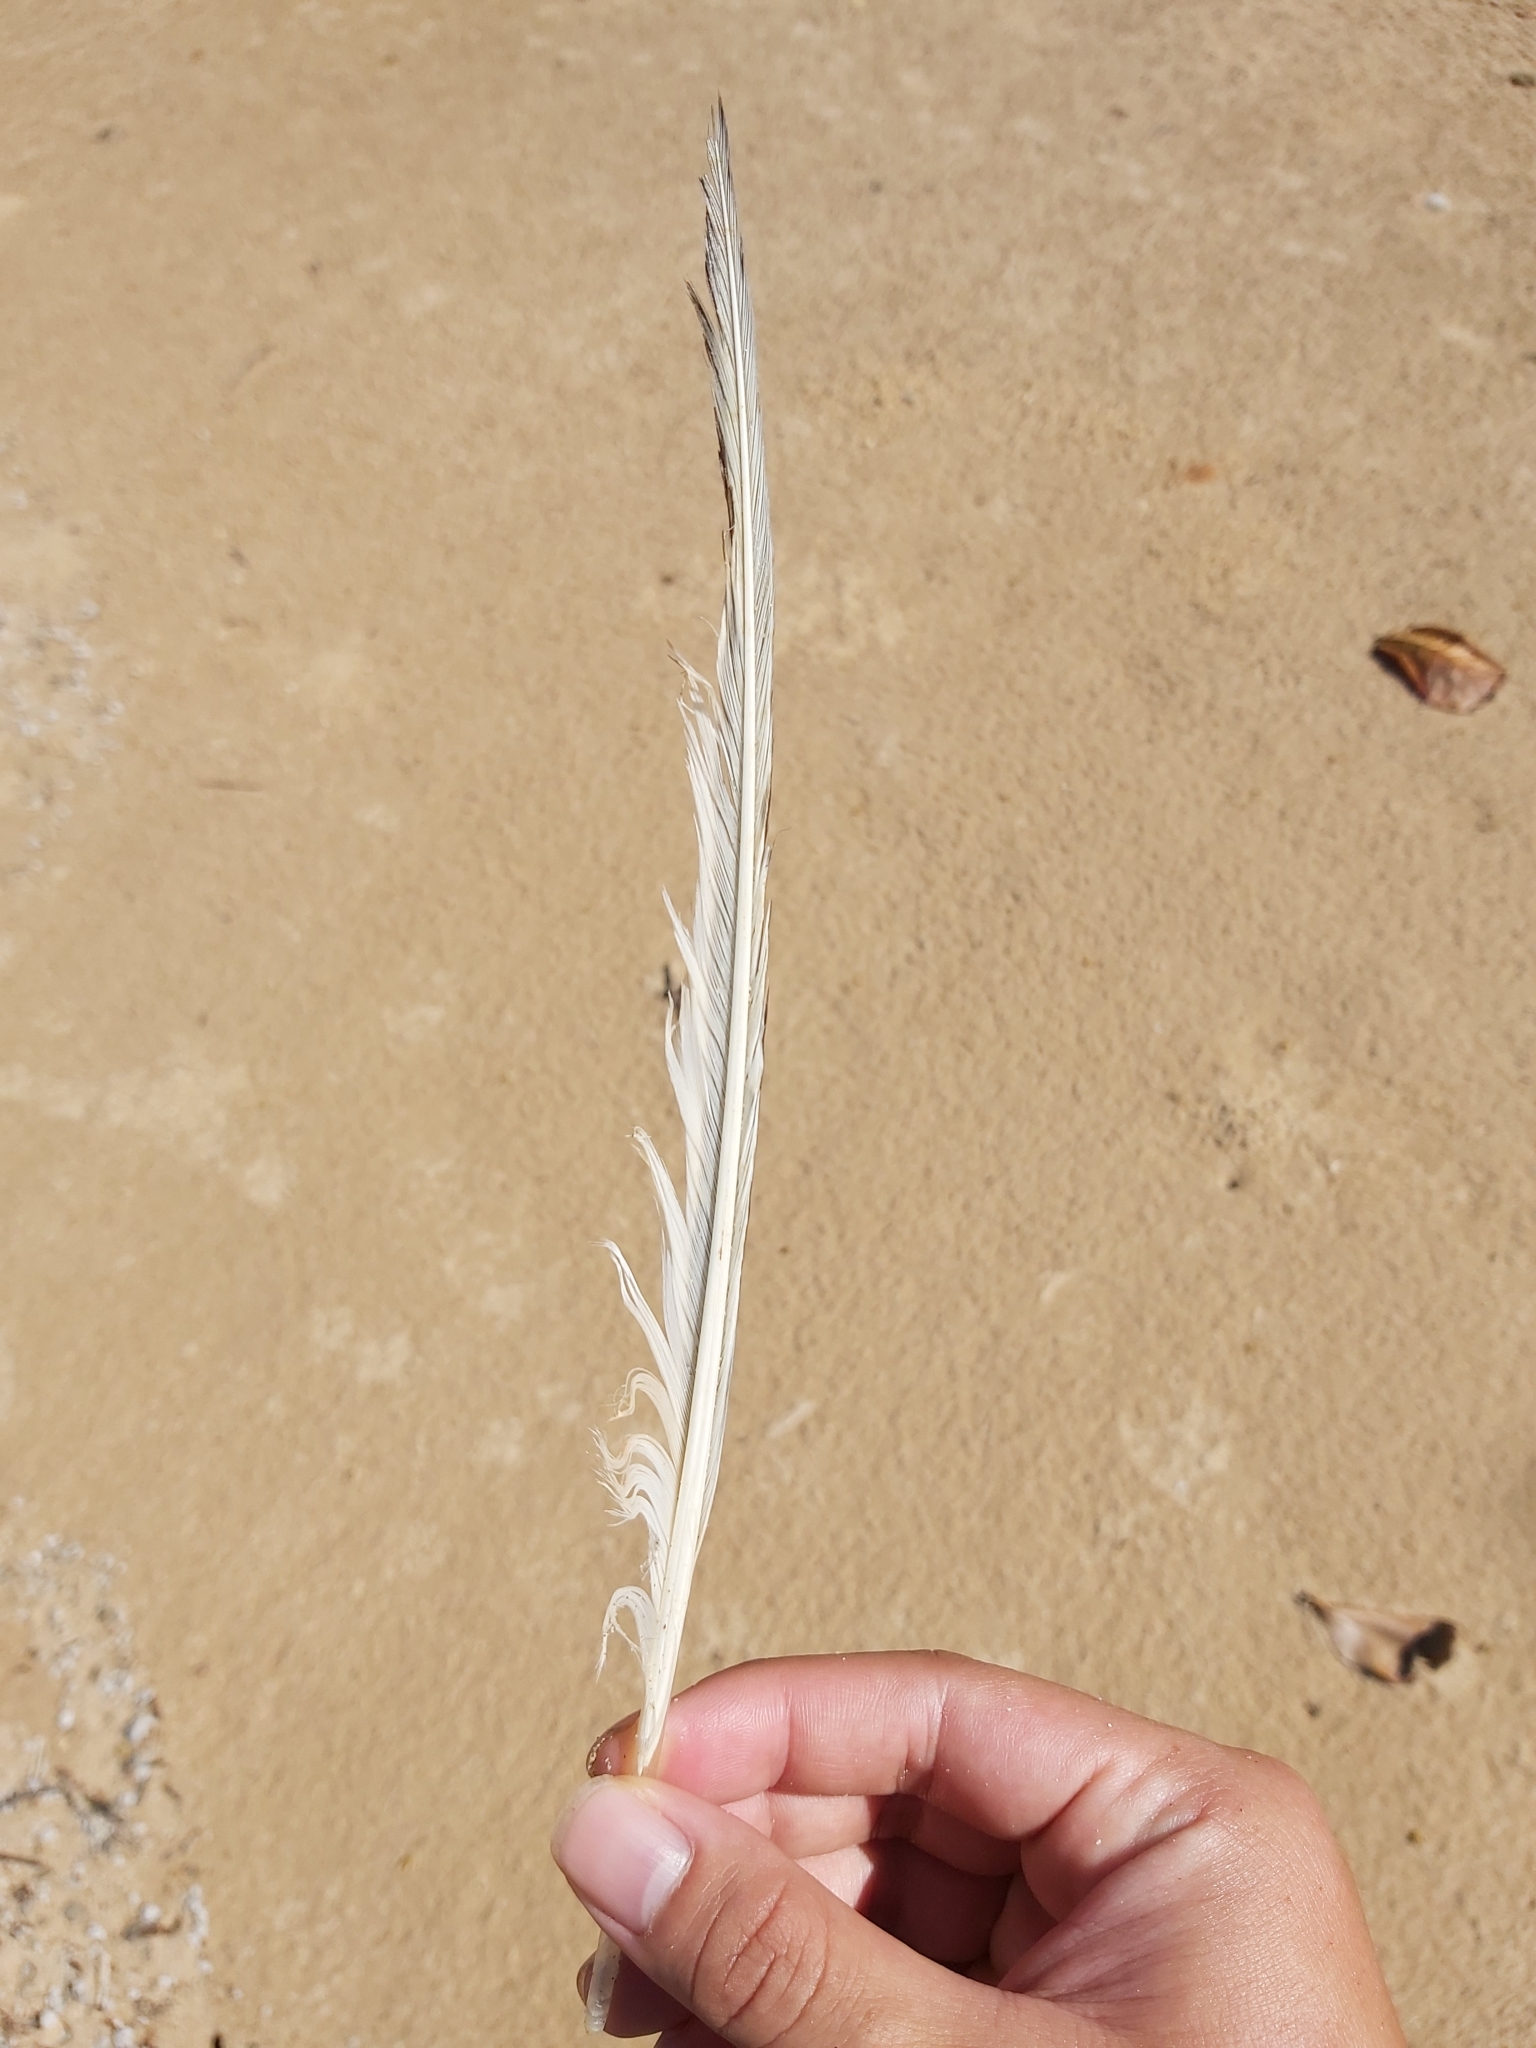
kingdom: Animalia
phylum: Chordata
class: Aves
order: Charadriiformes
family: Laridae
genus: Thalasseus
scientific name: Thalasseus bergii
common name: Greater crested tern
